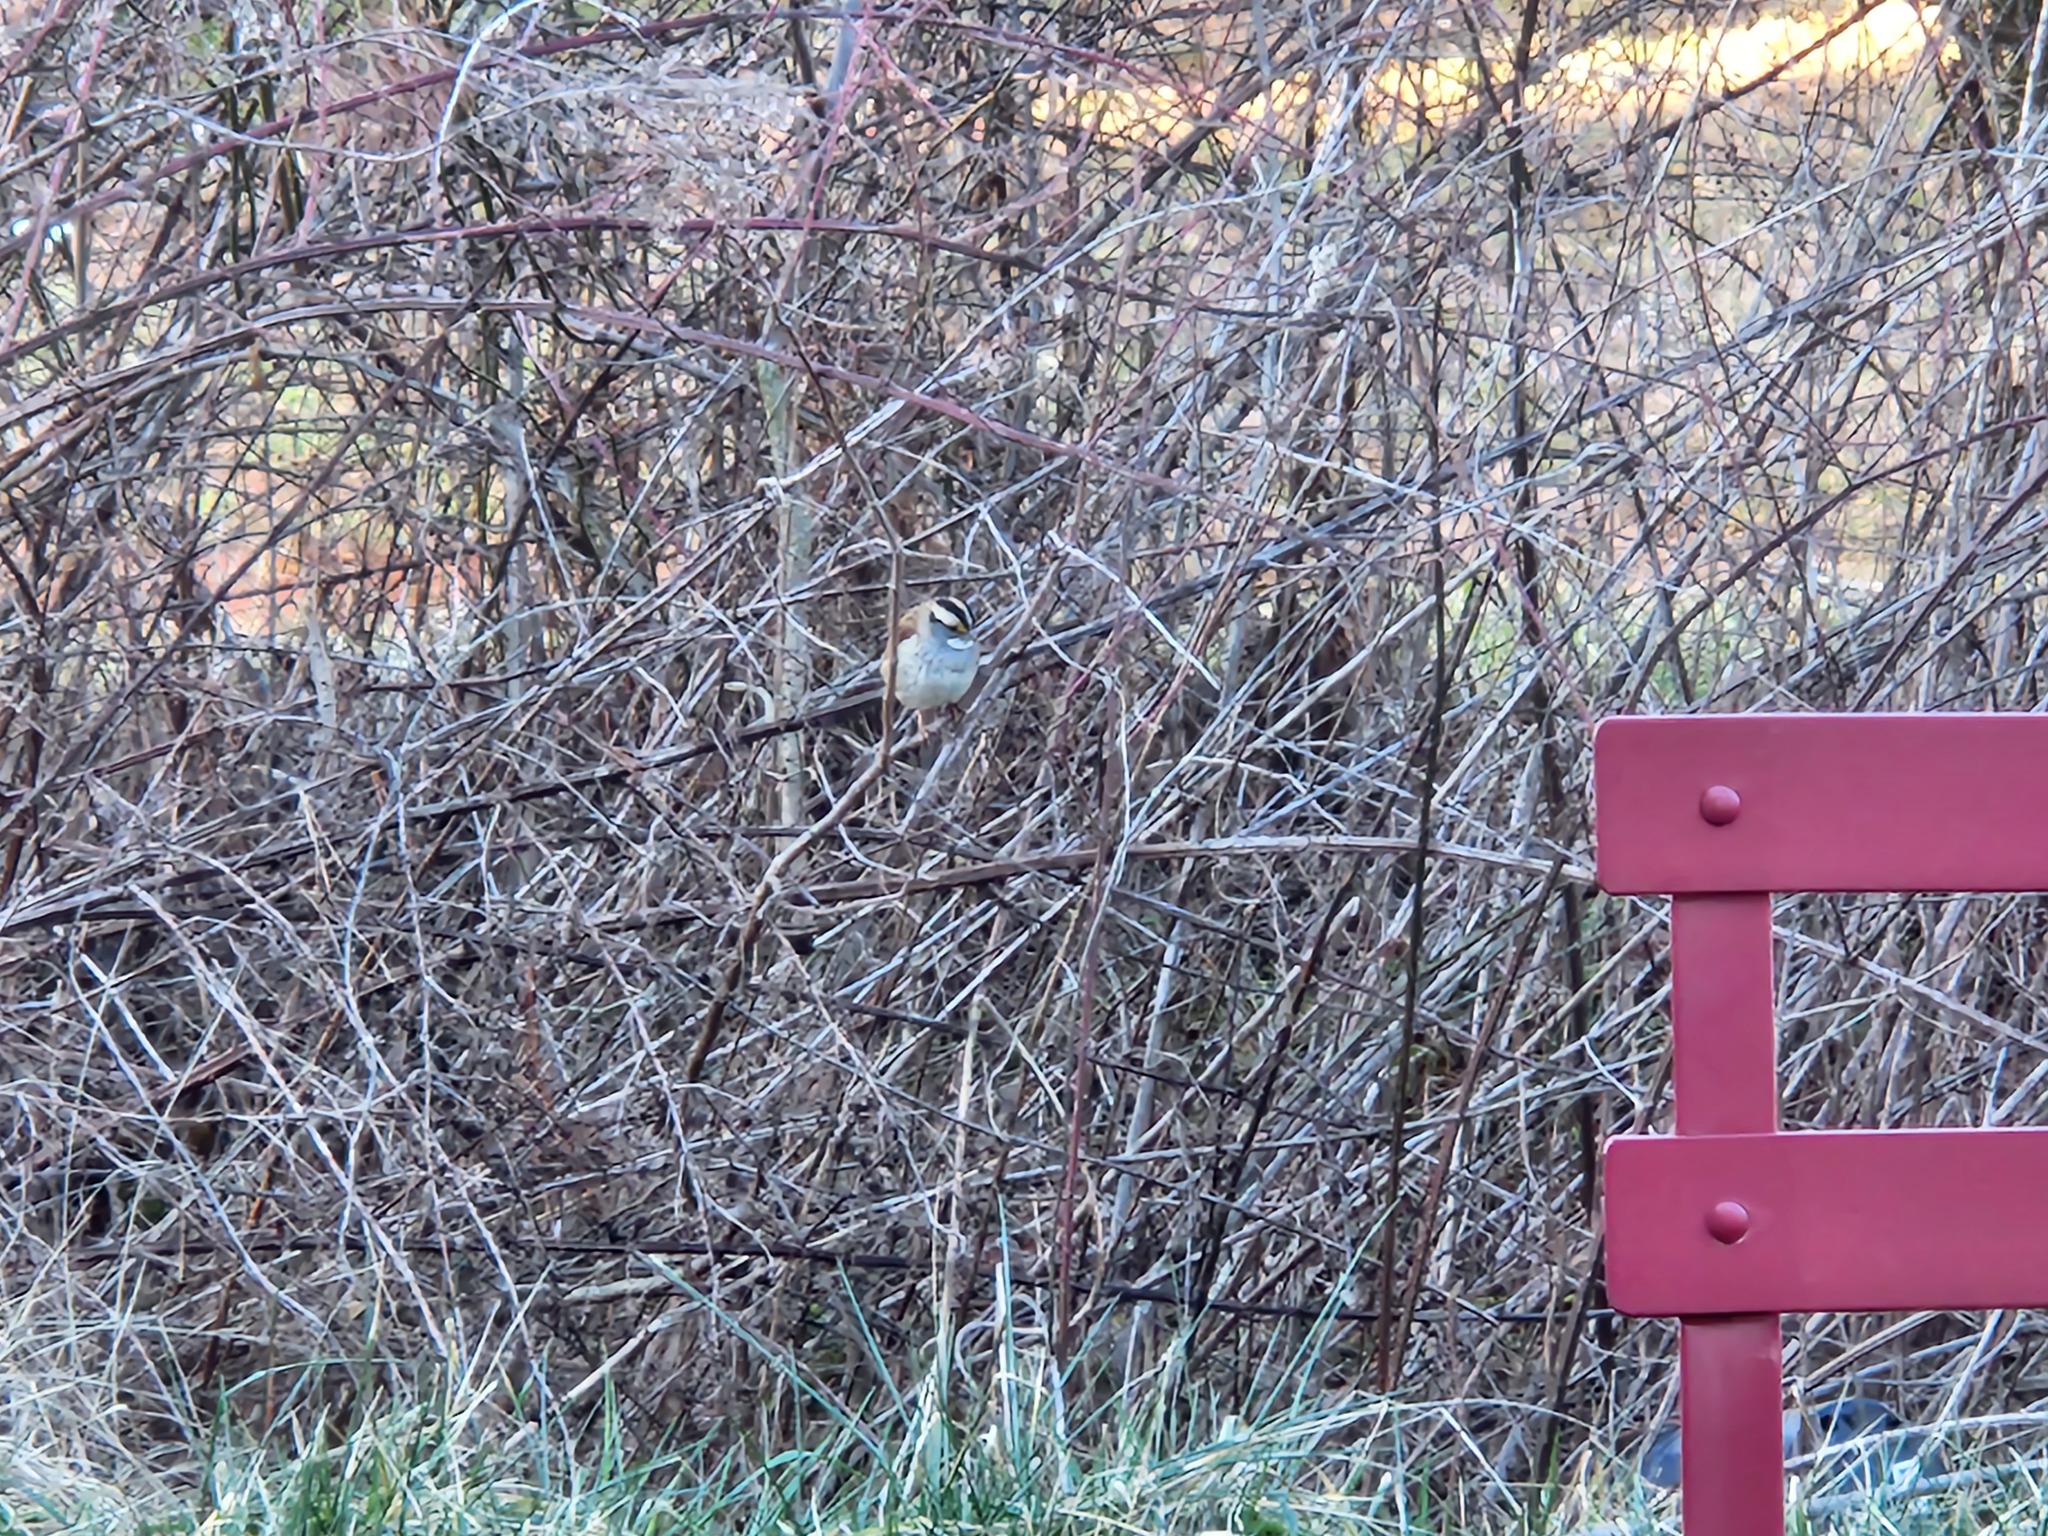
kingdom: Animalia
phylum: Chordata
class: Aves
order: Passeriformes
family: Passerellidae
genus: Zonotrichia
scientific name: Zonotrichia albicollis
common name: White-throated sparrow
